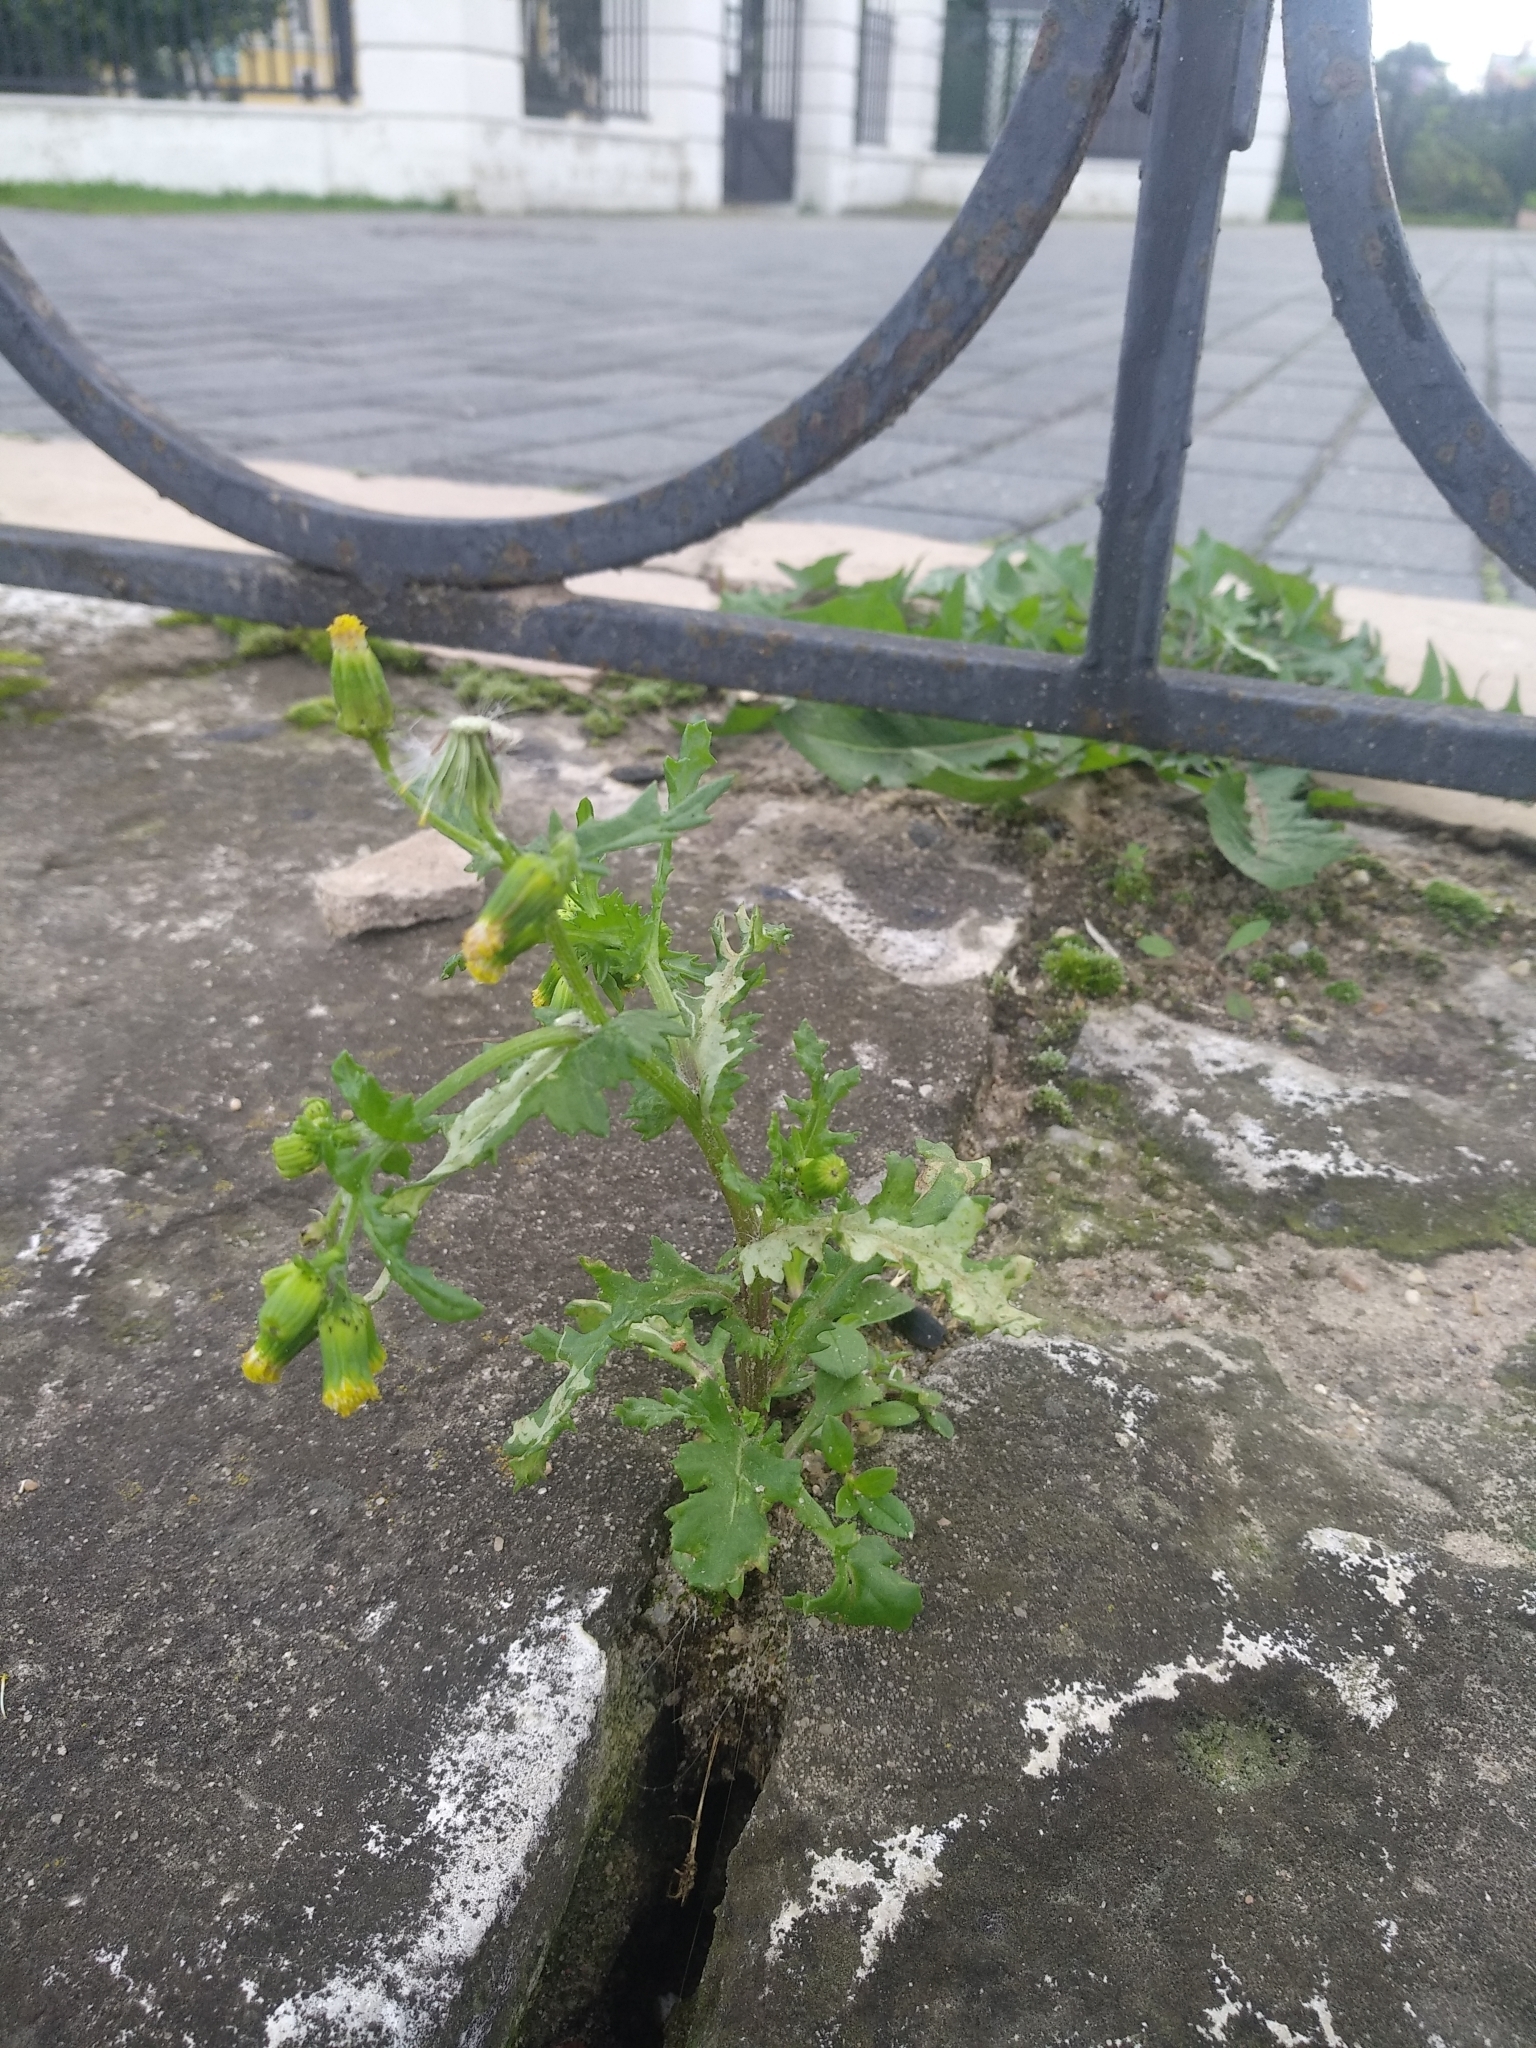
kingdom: Plantae
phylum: Tracheophyta
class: Magnoliopsida
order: Asterales
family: Asteraceae
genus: Senecio
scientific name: Senecio vulgaris
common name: Old-man-in-the-spring
